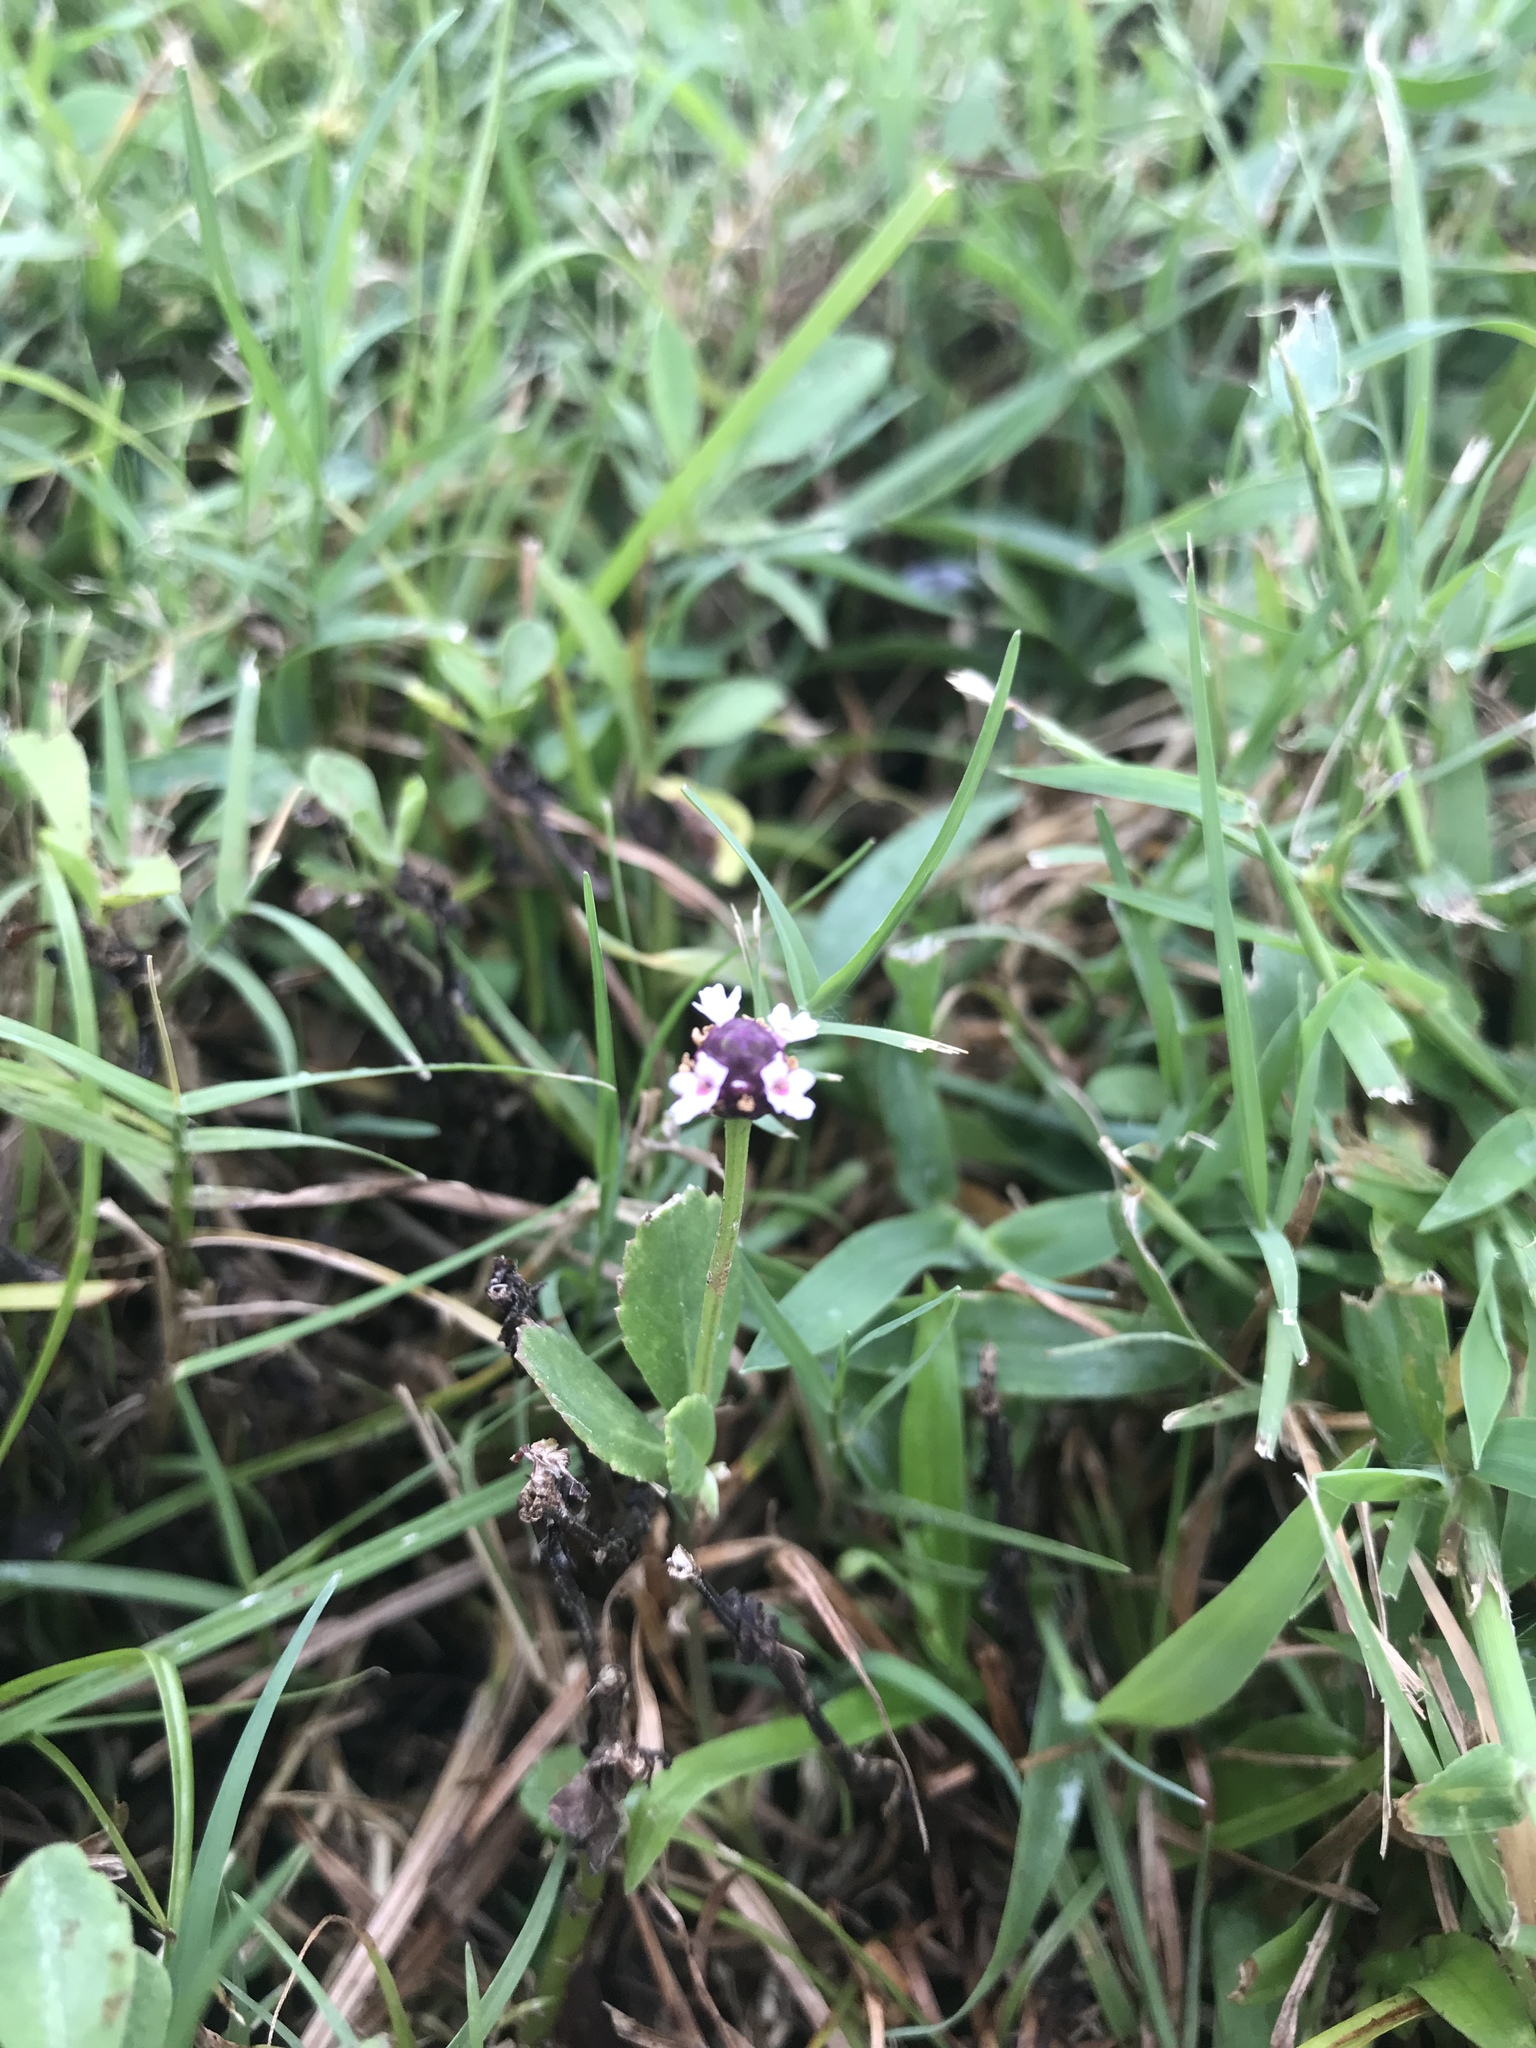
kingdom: Plantae
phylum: Tracheophyta
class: Magnoliopsida
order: Lamiales
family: Verbenaceae
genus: Phyla
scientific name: Phyla nodiflora
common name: Frogfruit
